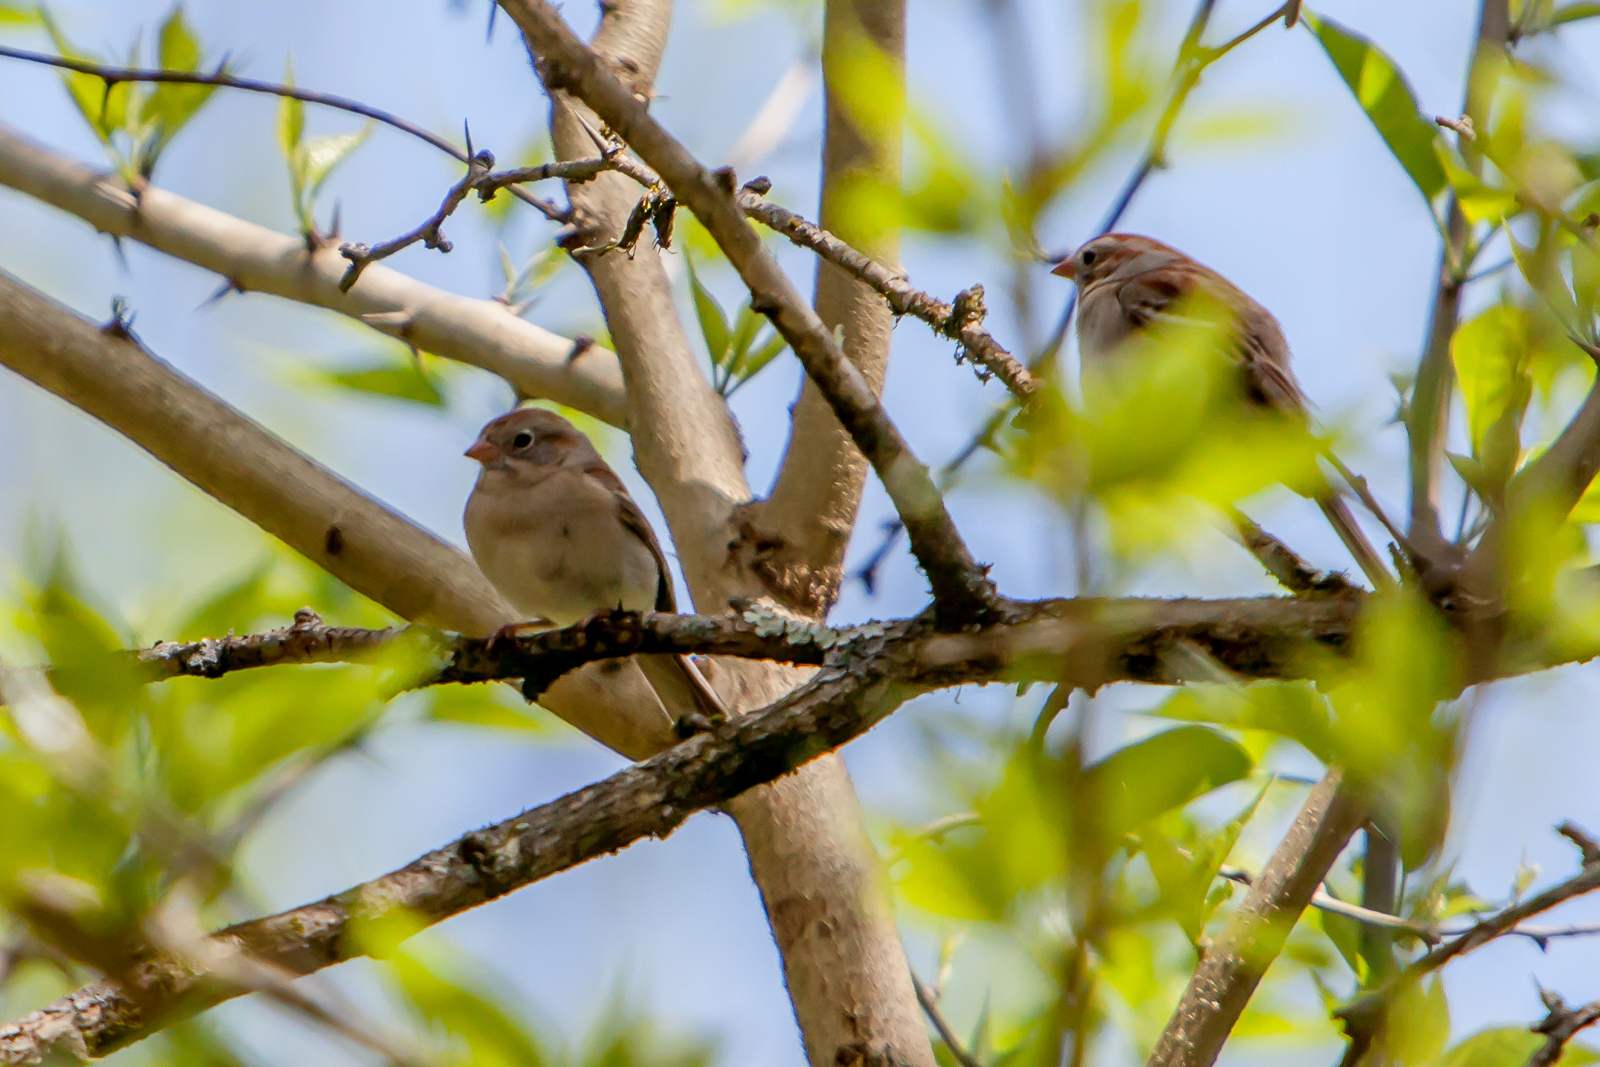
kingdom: Animalia
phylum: Chordata
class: Aves
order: Passeriformes
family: Passerellidae
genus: Spizella
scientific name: Spizella pusilla
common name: Field sparrow
